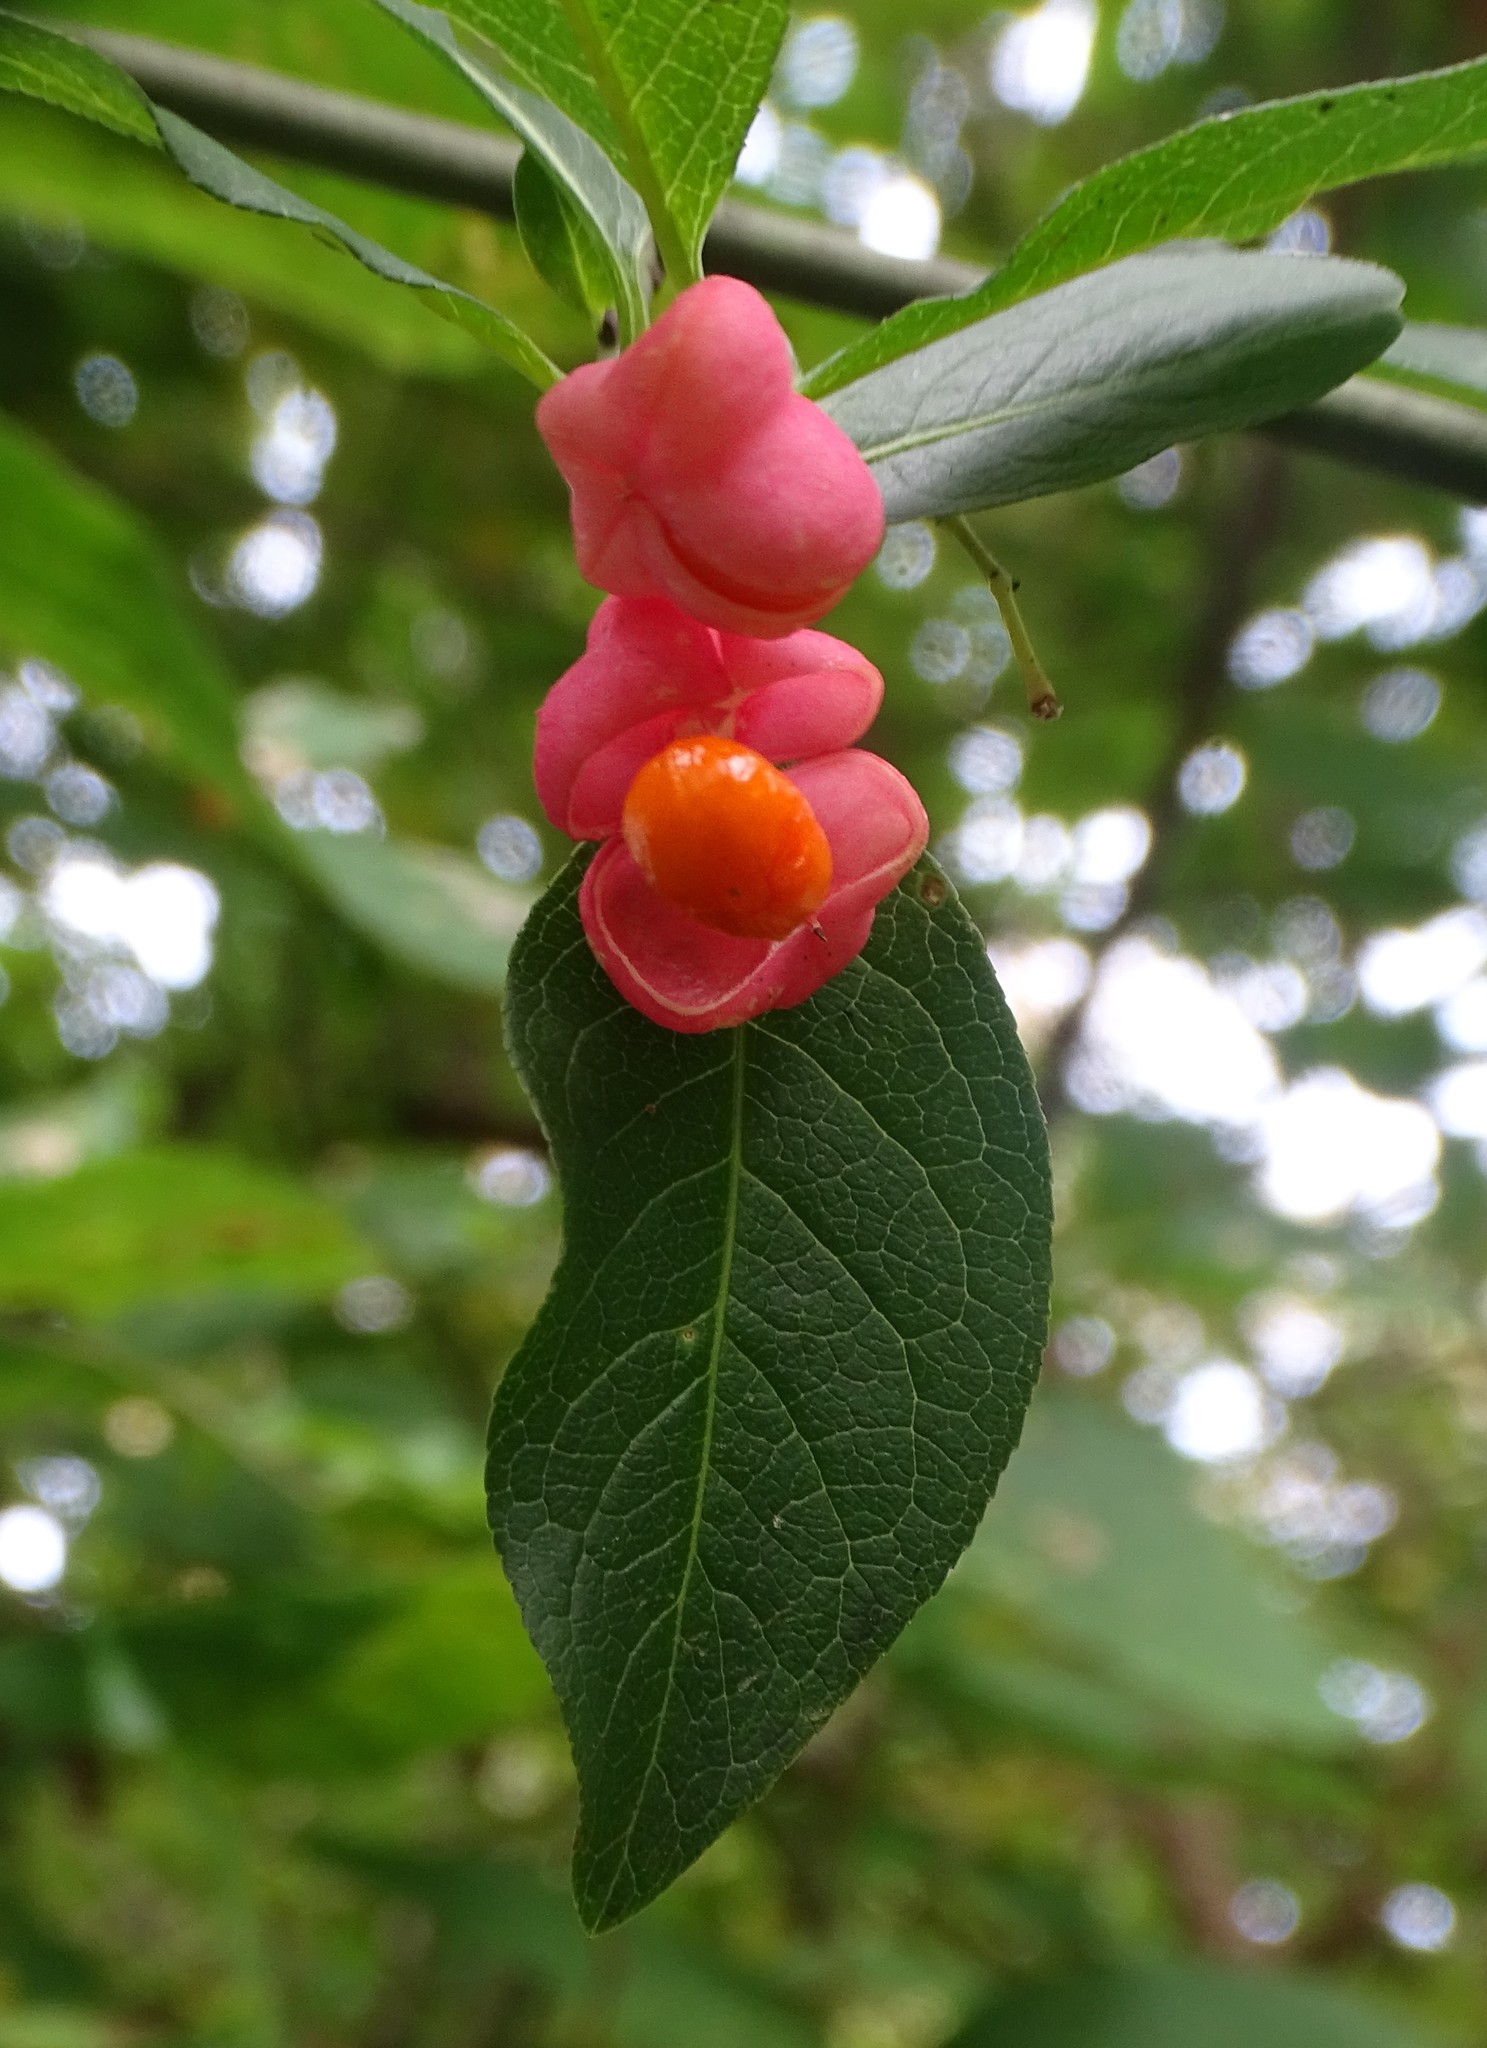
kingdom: Plantae
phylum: Tracheophyta
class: Magnoliopsida
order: Celastrales
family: Celastraceae
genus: Euonymus
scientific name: Euonymus europaeus
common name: Spindle
